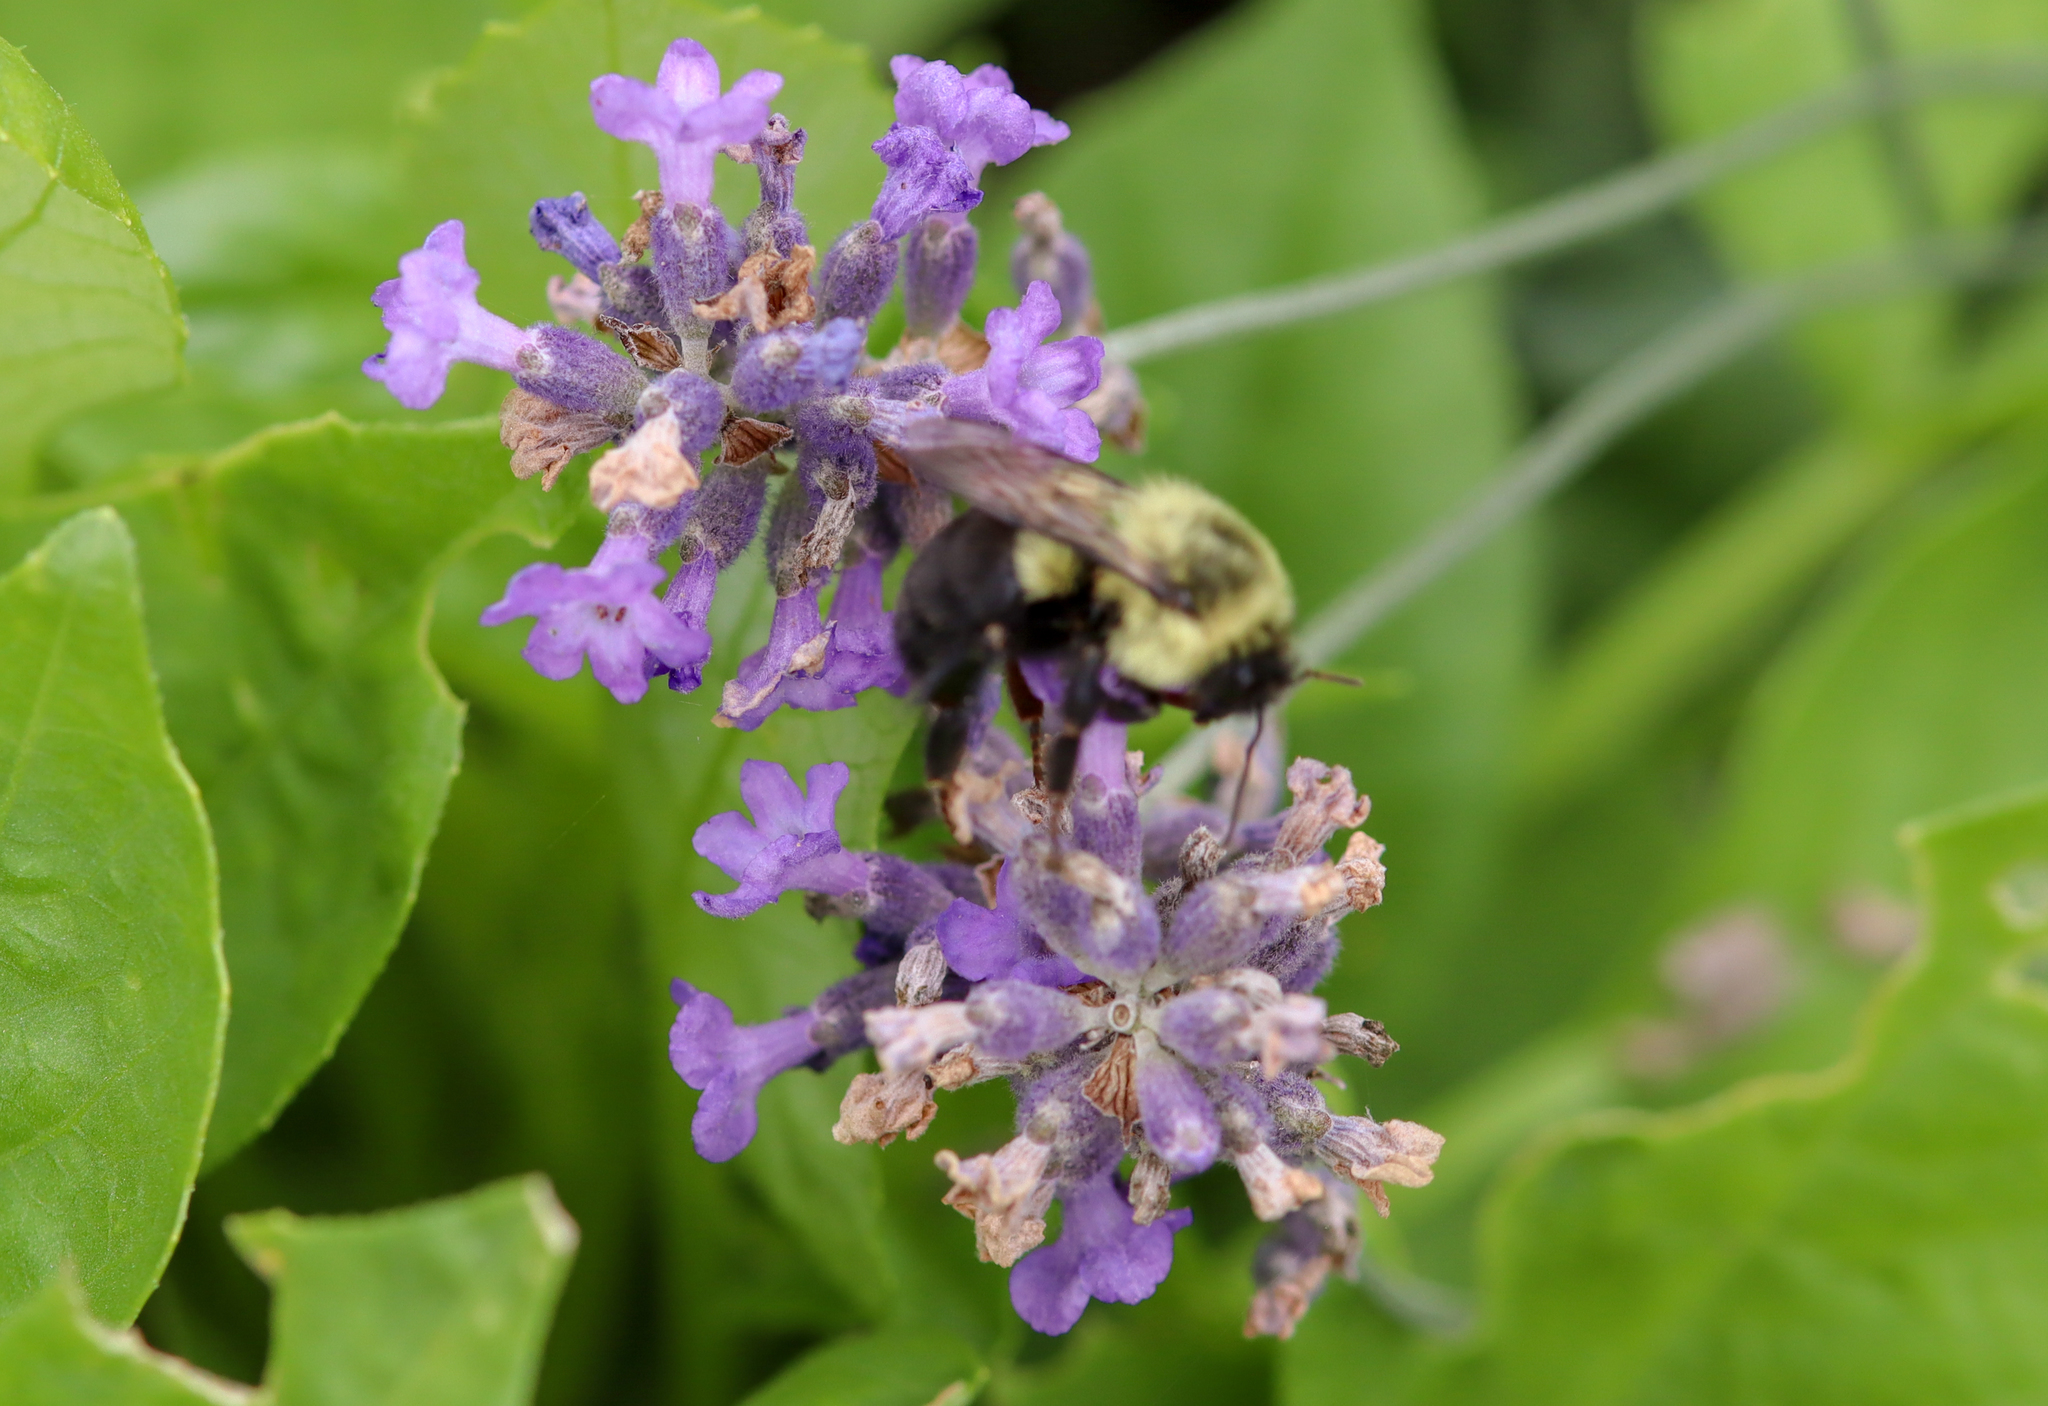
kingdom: Animalia
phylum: Arthropoda
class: Insecta
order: Hymenoptera
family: Apidae
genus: Bombus
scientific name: Bombus impatiens
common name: Common eastern bumble bee
